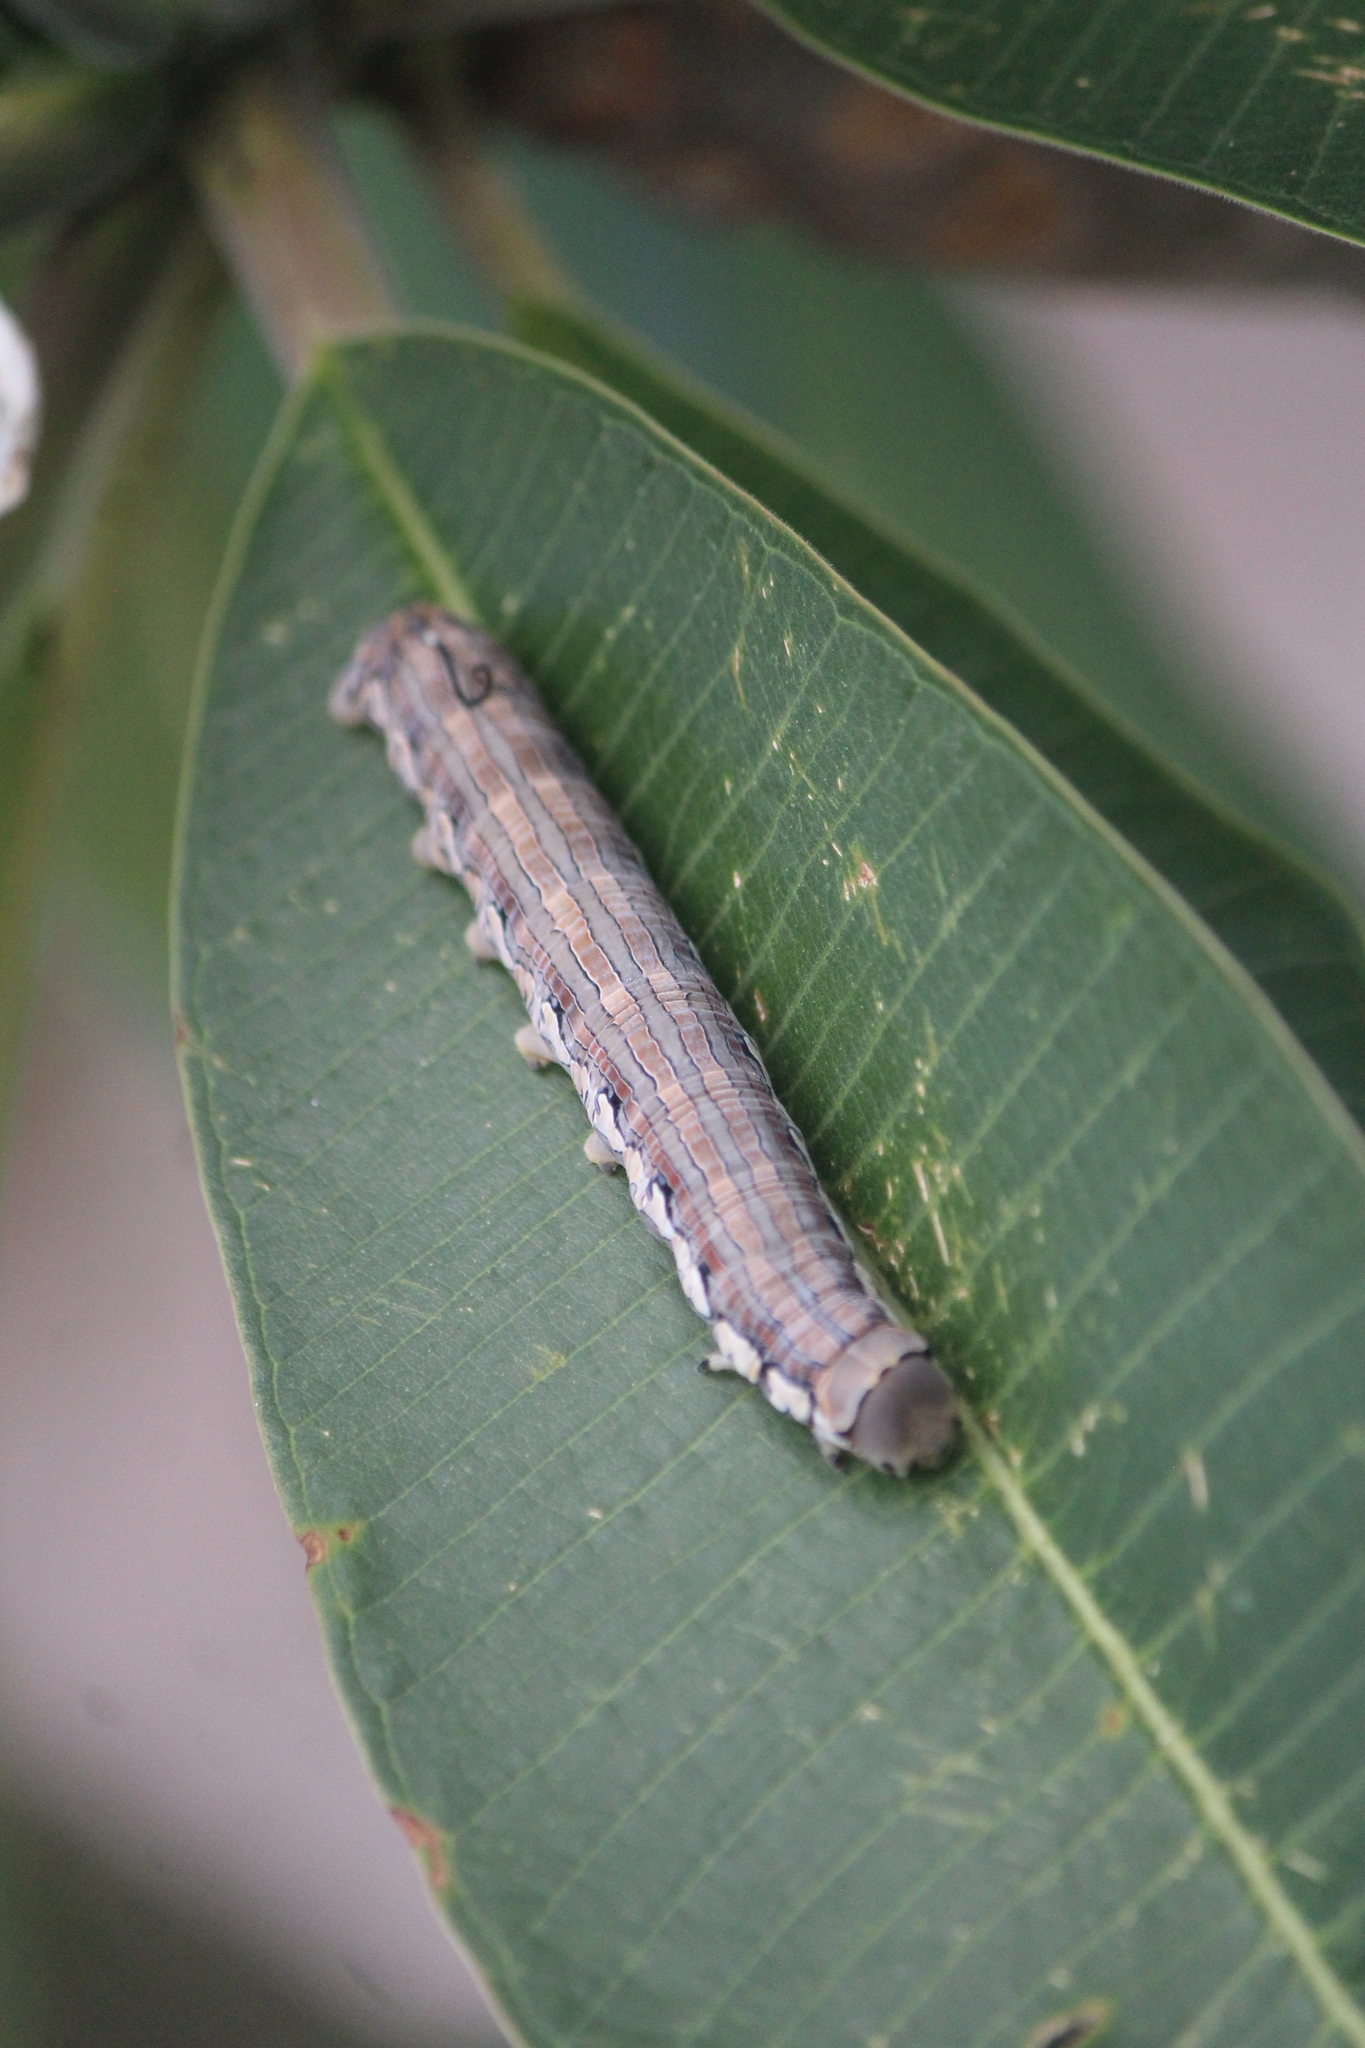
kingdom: Animalia
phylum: Arthropoda
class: Insecta
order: Lepidoptera
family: Sphingidae
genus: Isognathus
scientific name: Isognathus rimosa
